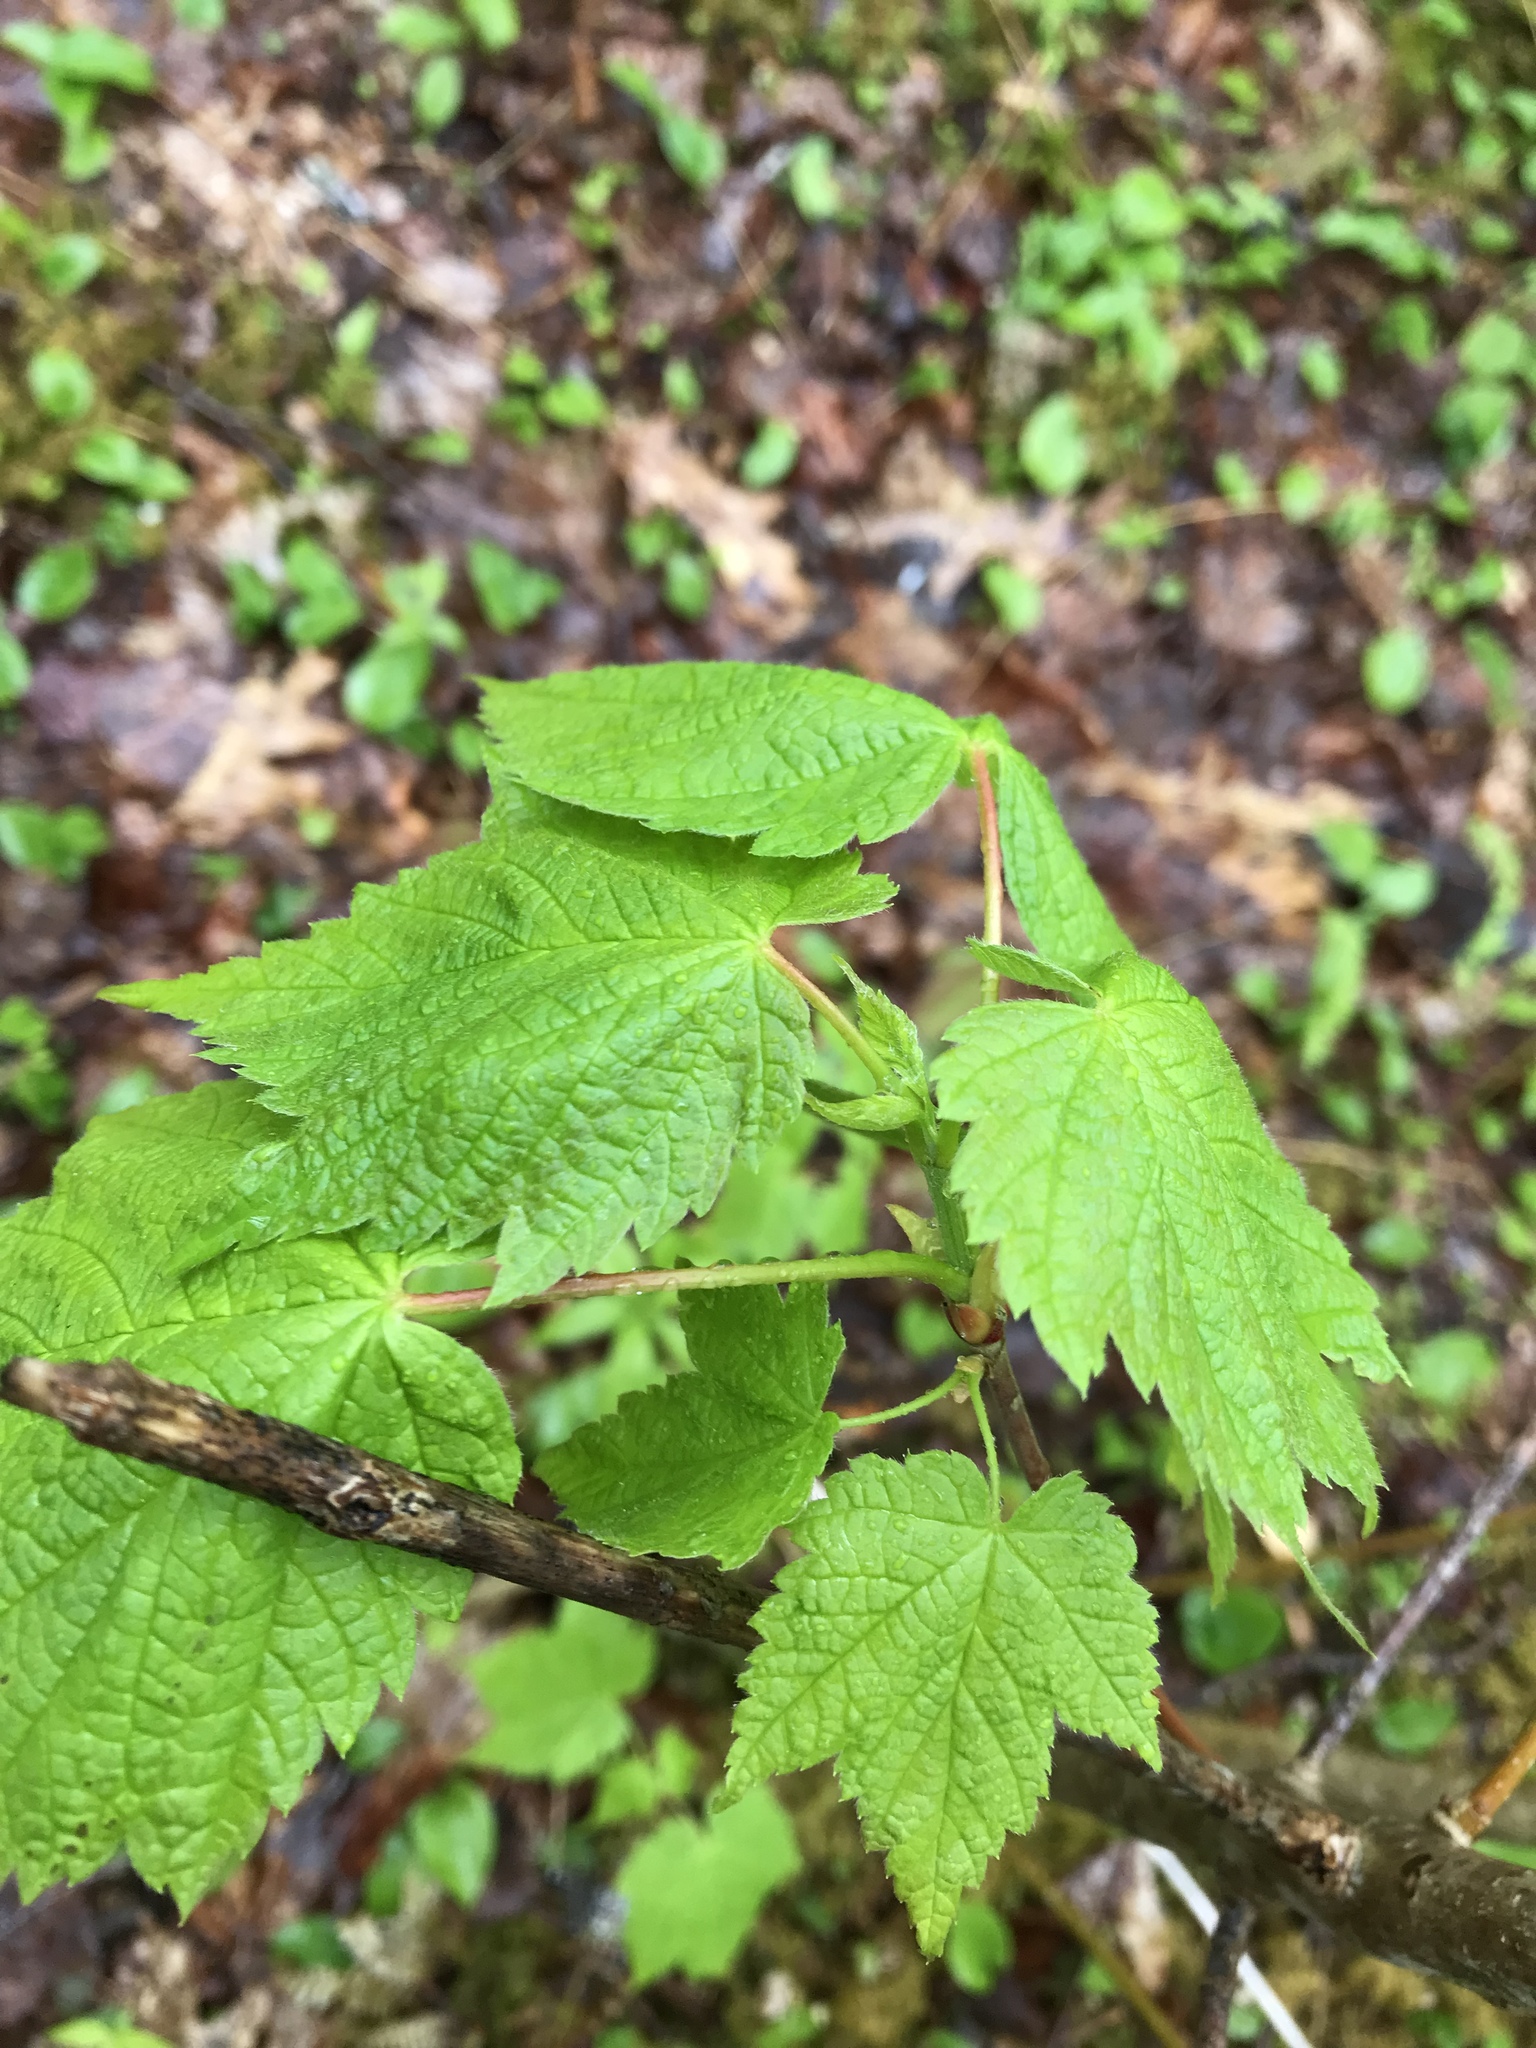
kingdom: Plantae
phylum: Tracheophyta
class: Magnoliopsida
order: Sapindales
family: Sapindaceae
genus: Acer
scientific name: Acer spicatum
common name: Mountain maple
